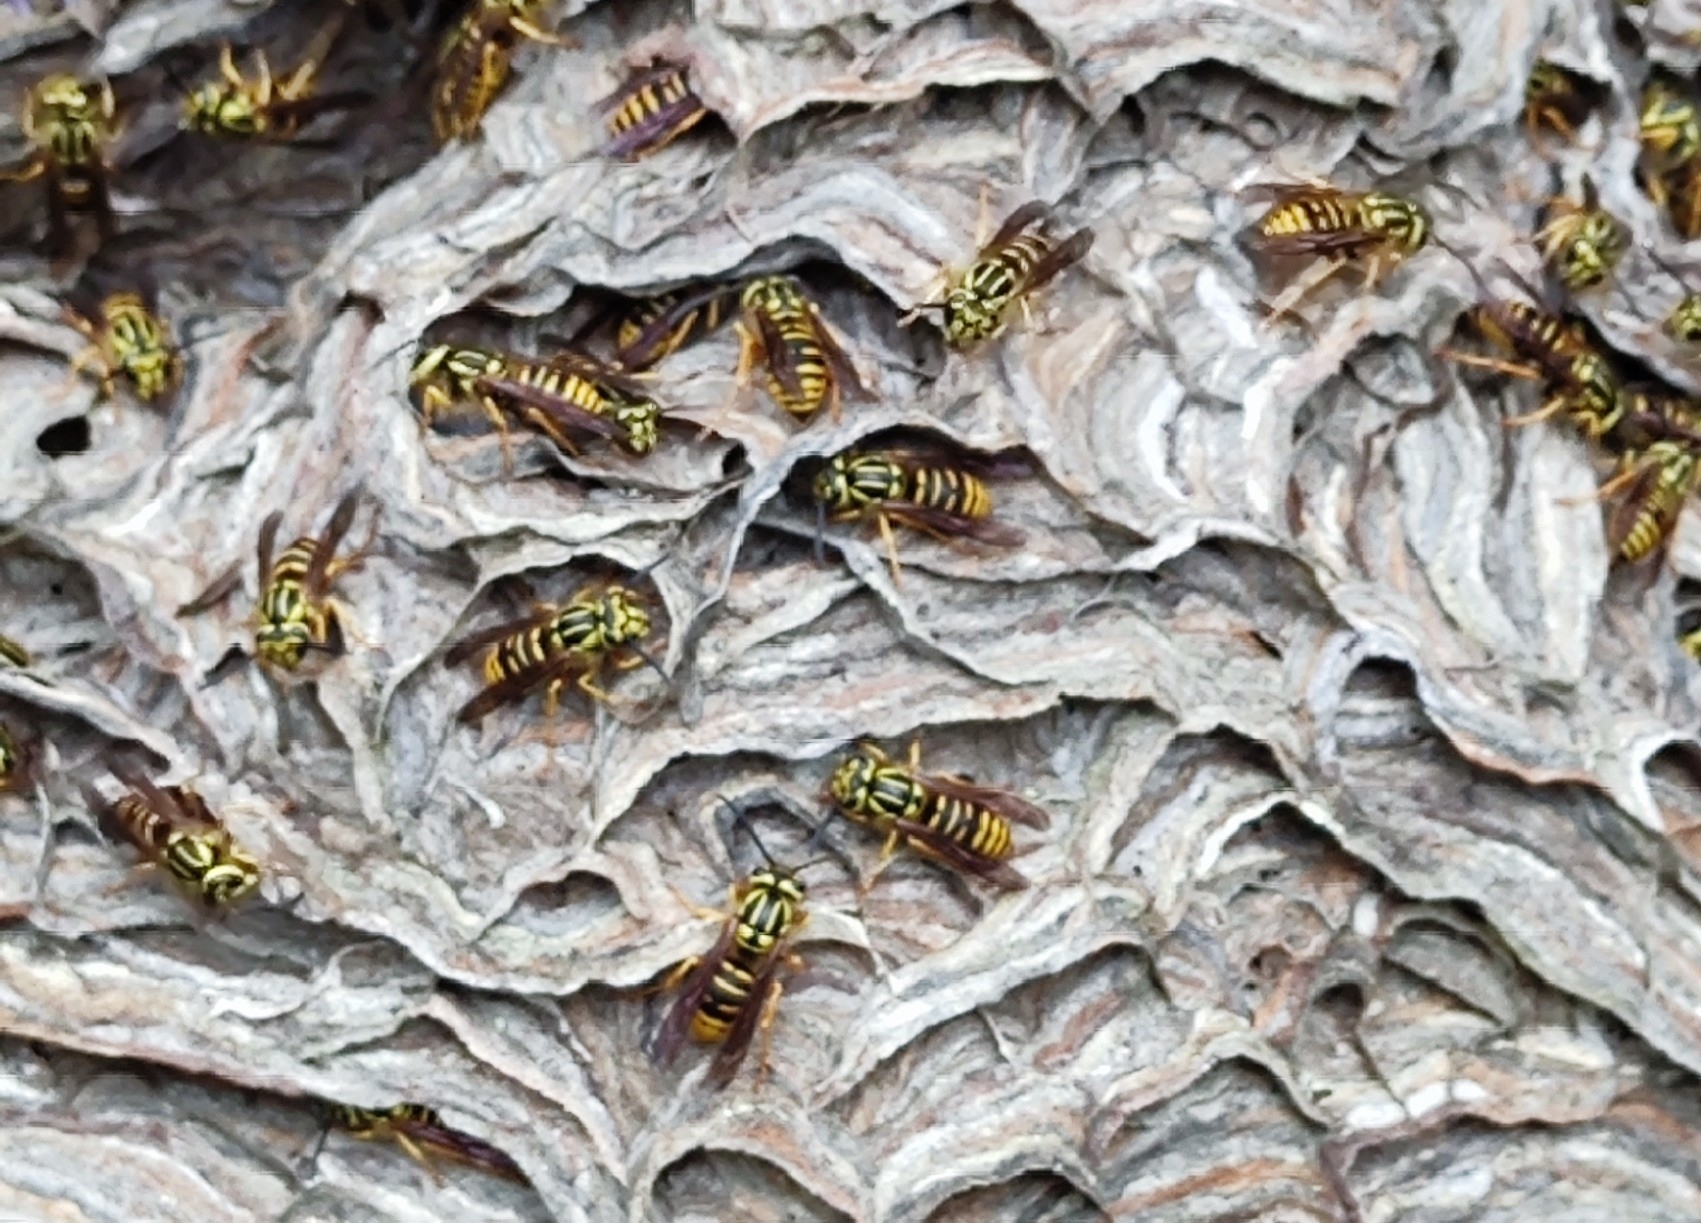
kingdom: Animalia
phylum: Arthropoda
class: Insecta
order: Hymenoptera
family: Vespidae
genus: Vespula
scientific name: Vespula squamosa
